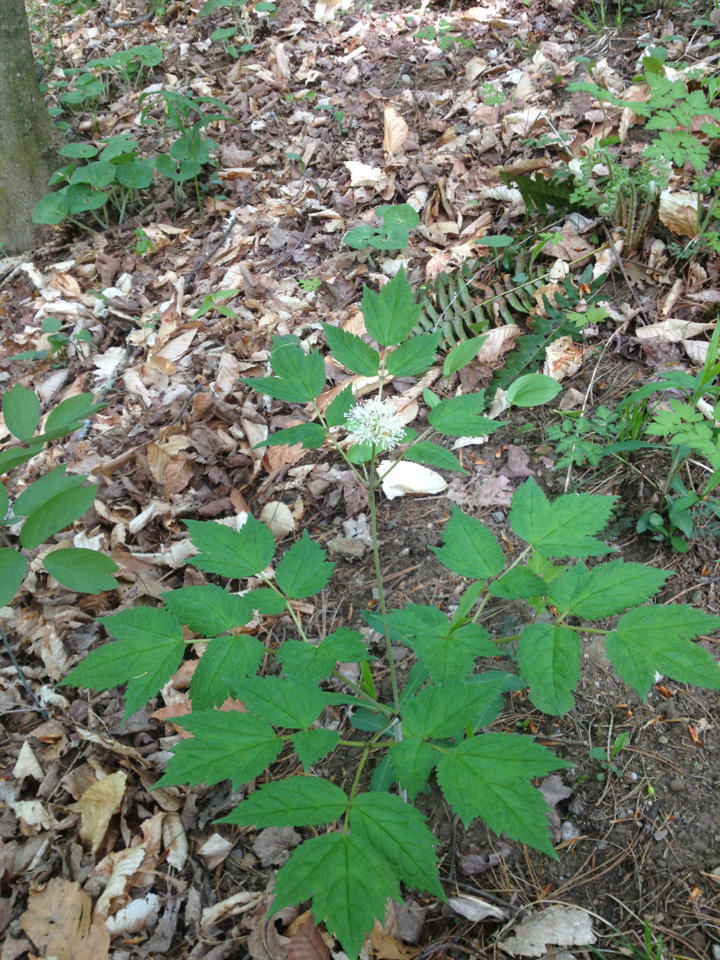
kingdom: Plantae
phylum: Tracheophyta
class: Magnoliopsida
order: Ranunculales
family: Ranunculaceae
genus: Actaea
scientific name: Actaea rubra
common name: Red baneberry
